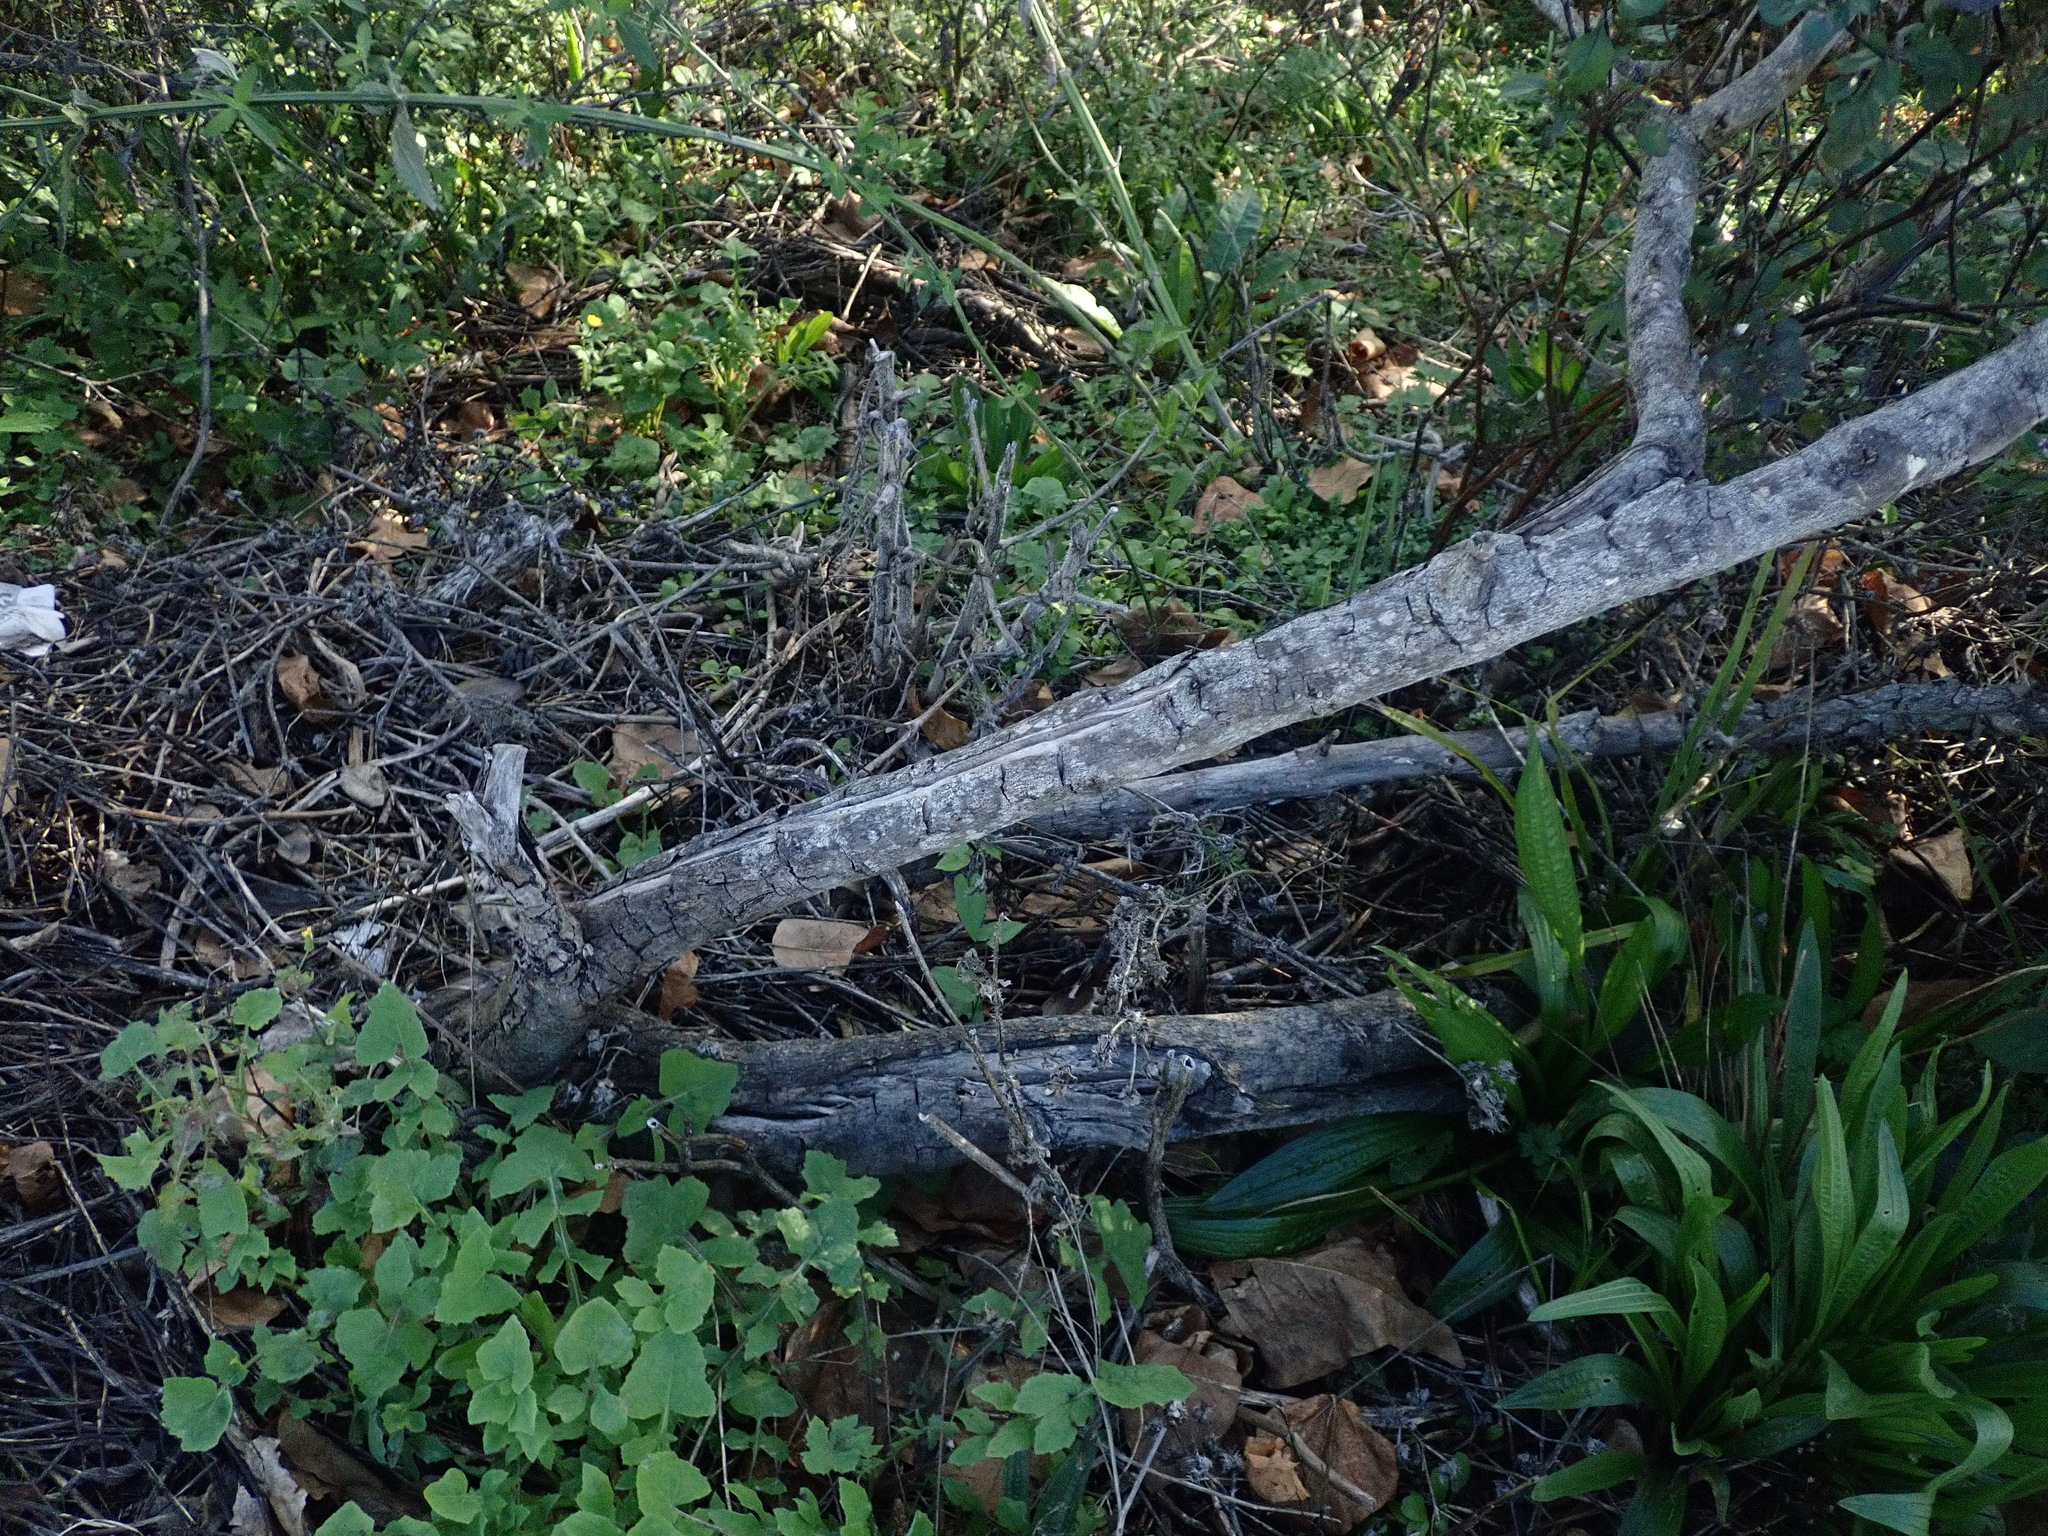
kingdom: Plantae
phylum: Tracheophyta
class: Magnoliopsida
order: Gentianales
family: Rubiaceae
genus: Coprosma
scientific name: Coprosma robusta
